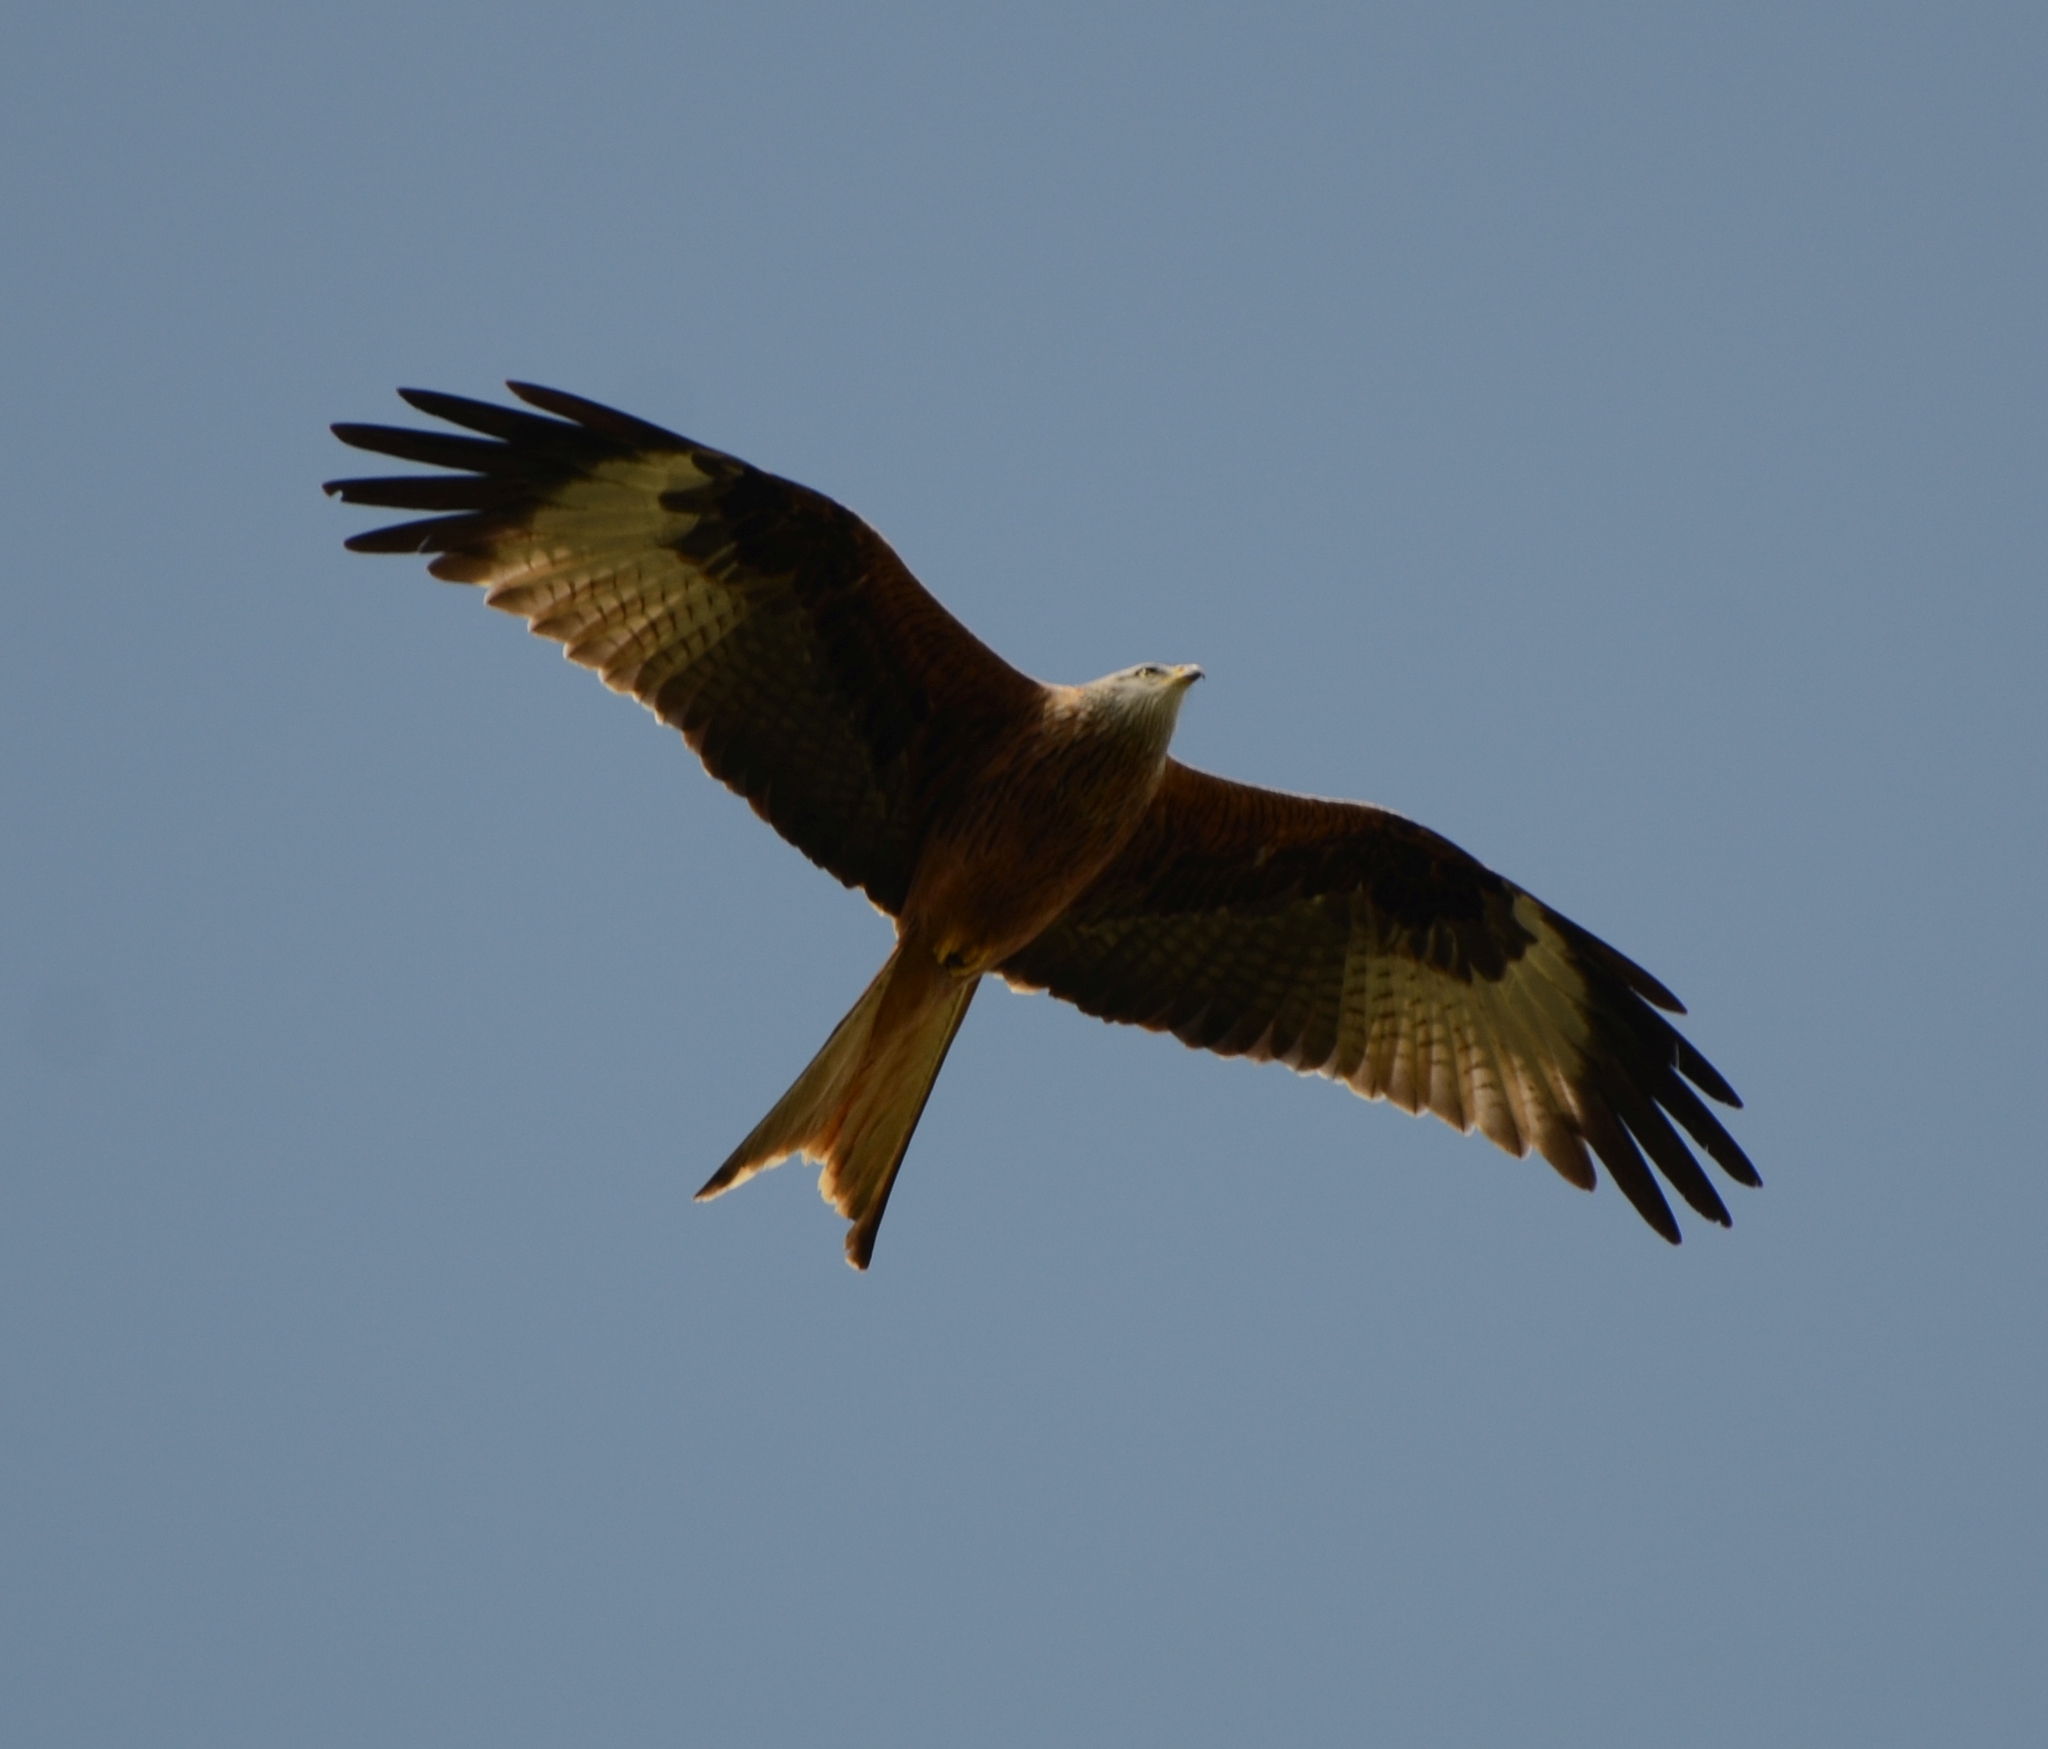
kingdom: Animalia
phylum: Chordata
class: Aves
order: Accipitriformes
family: Accipitridae
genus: Milvus
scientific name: Milvus milvus
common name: Red kite
